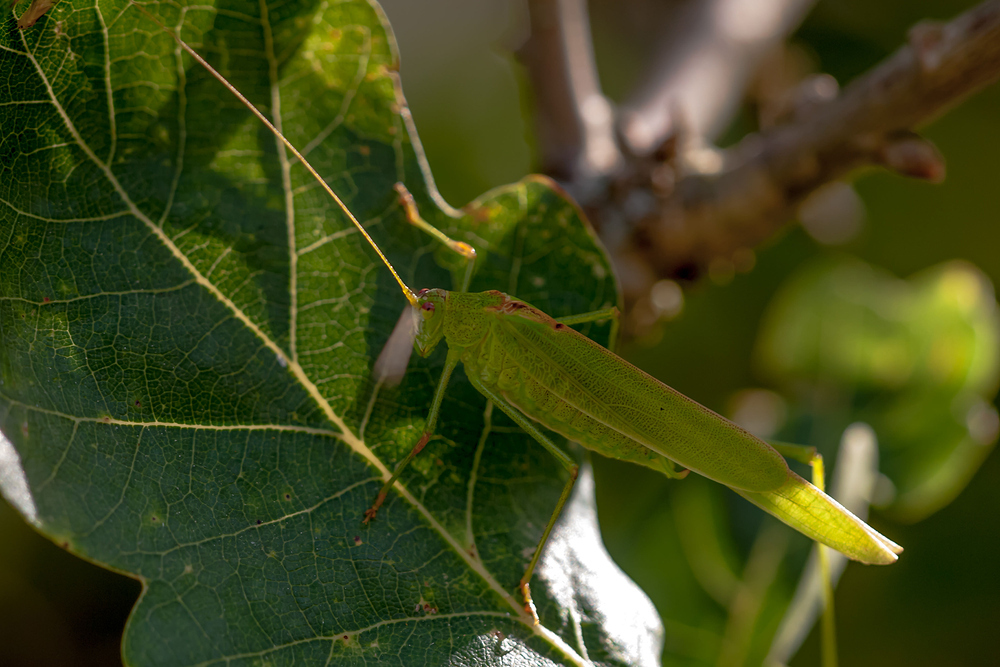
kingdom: Animalia
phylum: Arthropoda
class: Insecta
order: Orthoptera
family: Tettigoniidae
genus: Phaneroptera
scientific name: Phaneroptera falcata
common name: Sickle-bearing bush-cricket
